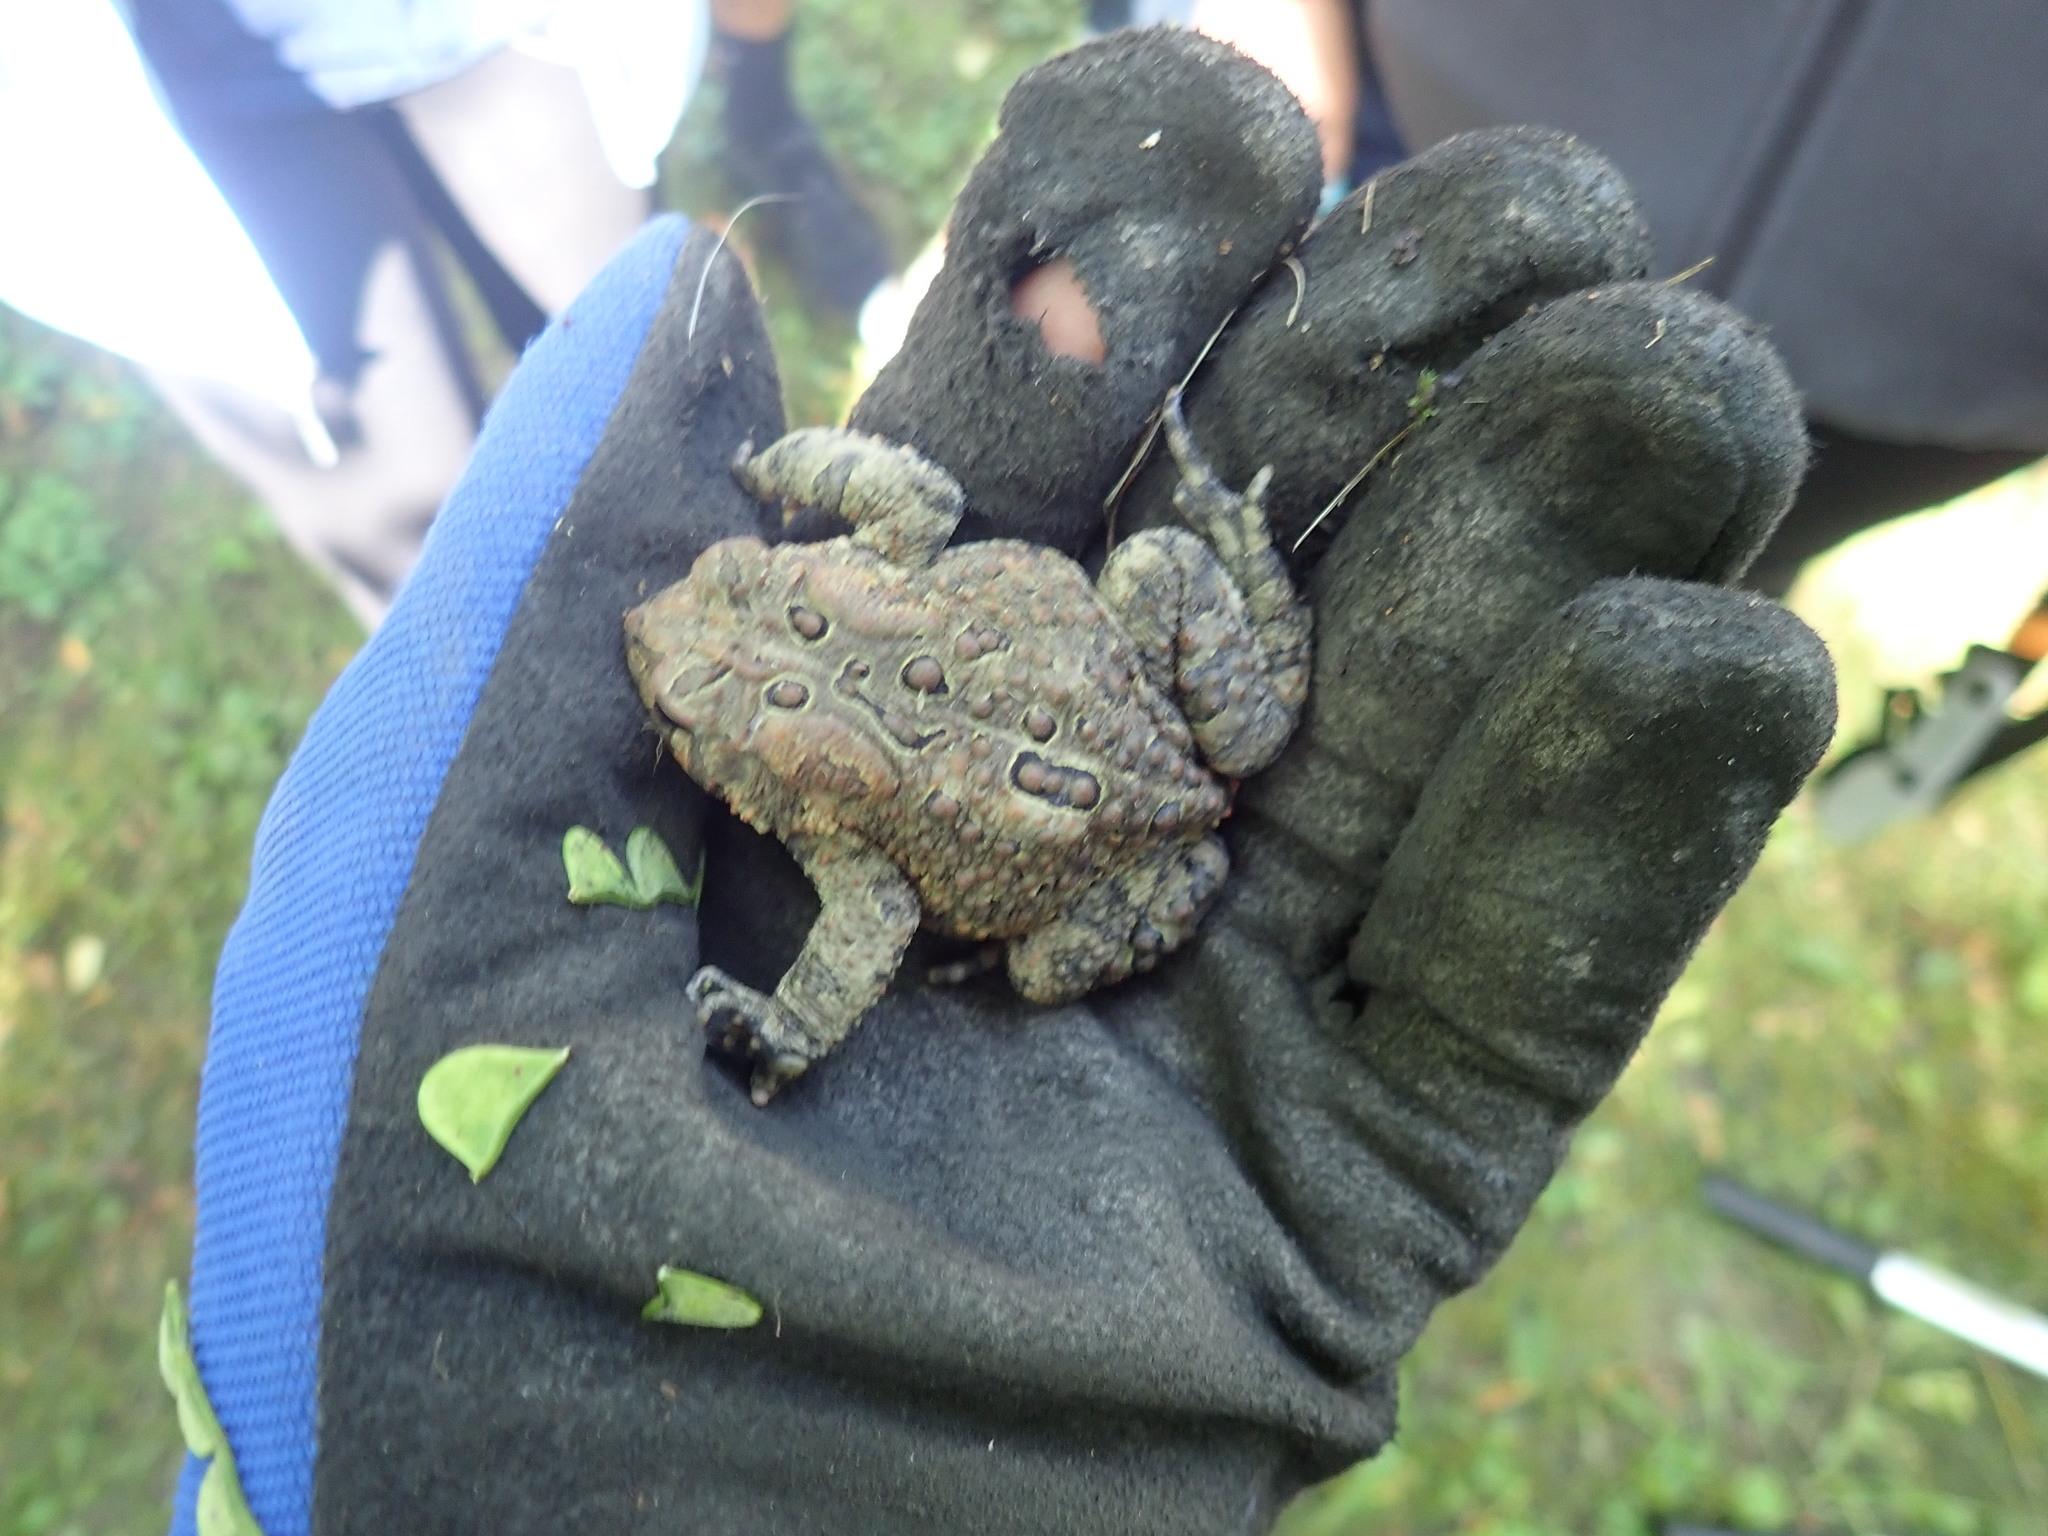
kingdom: Animalia
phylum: Chordata
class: Amphibia
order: Anura
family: Bufonidae
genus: Anaxyrus
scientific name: Anaxyrus americanus
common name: American toad
